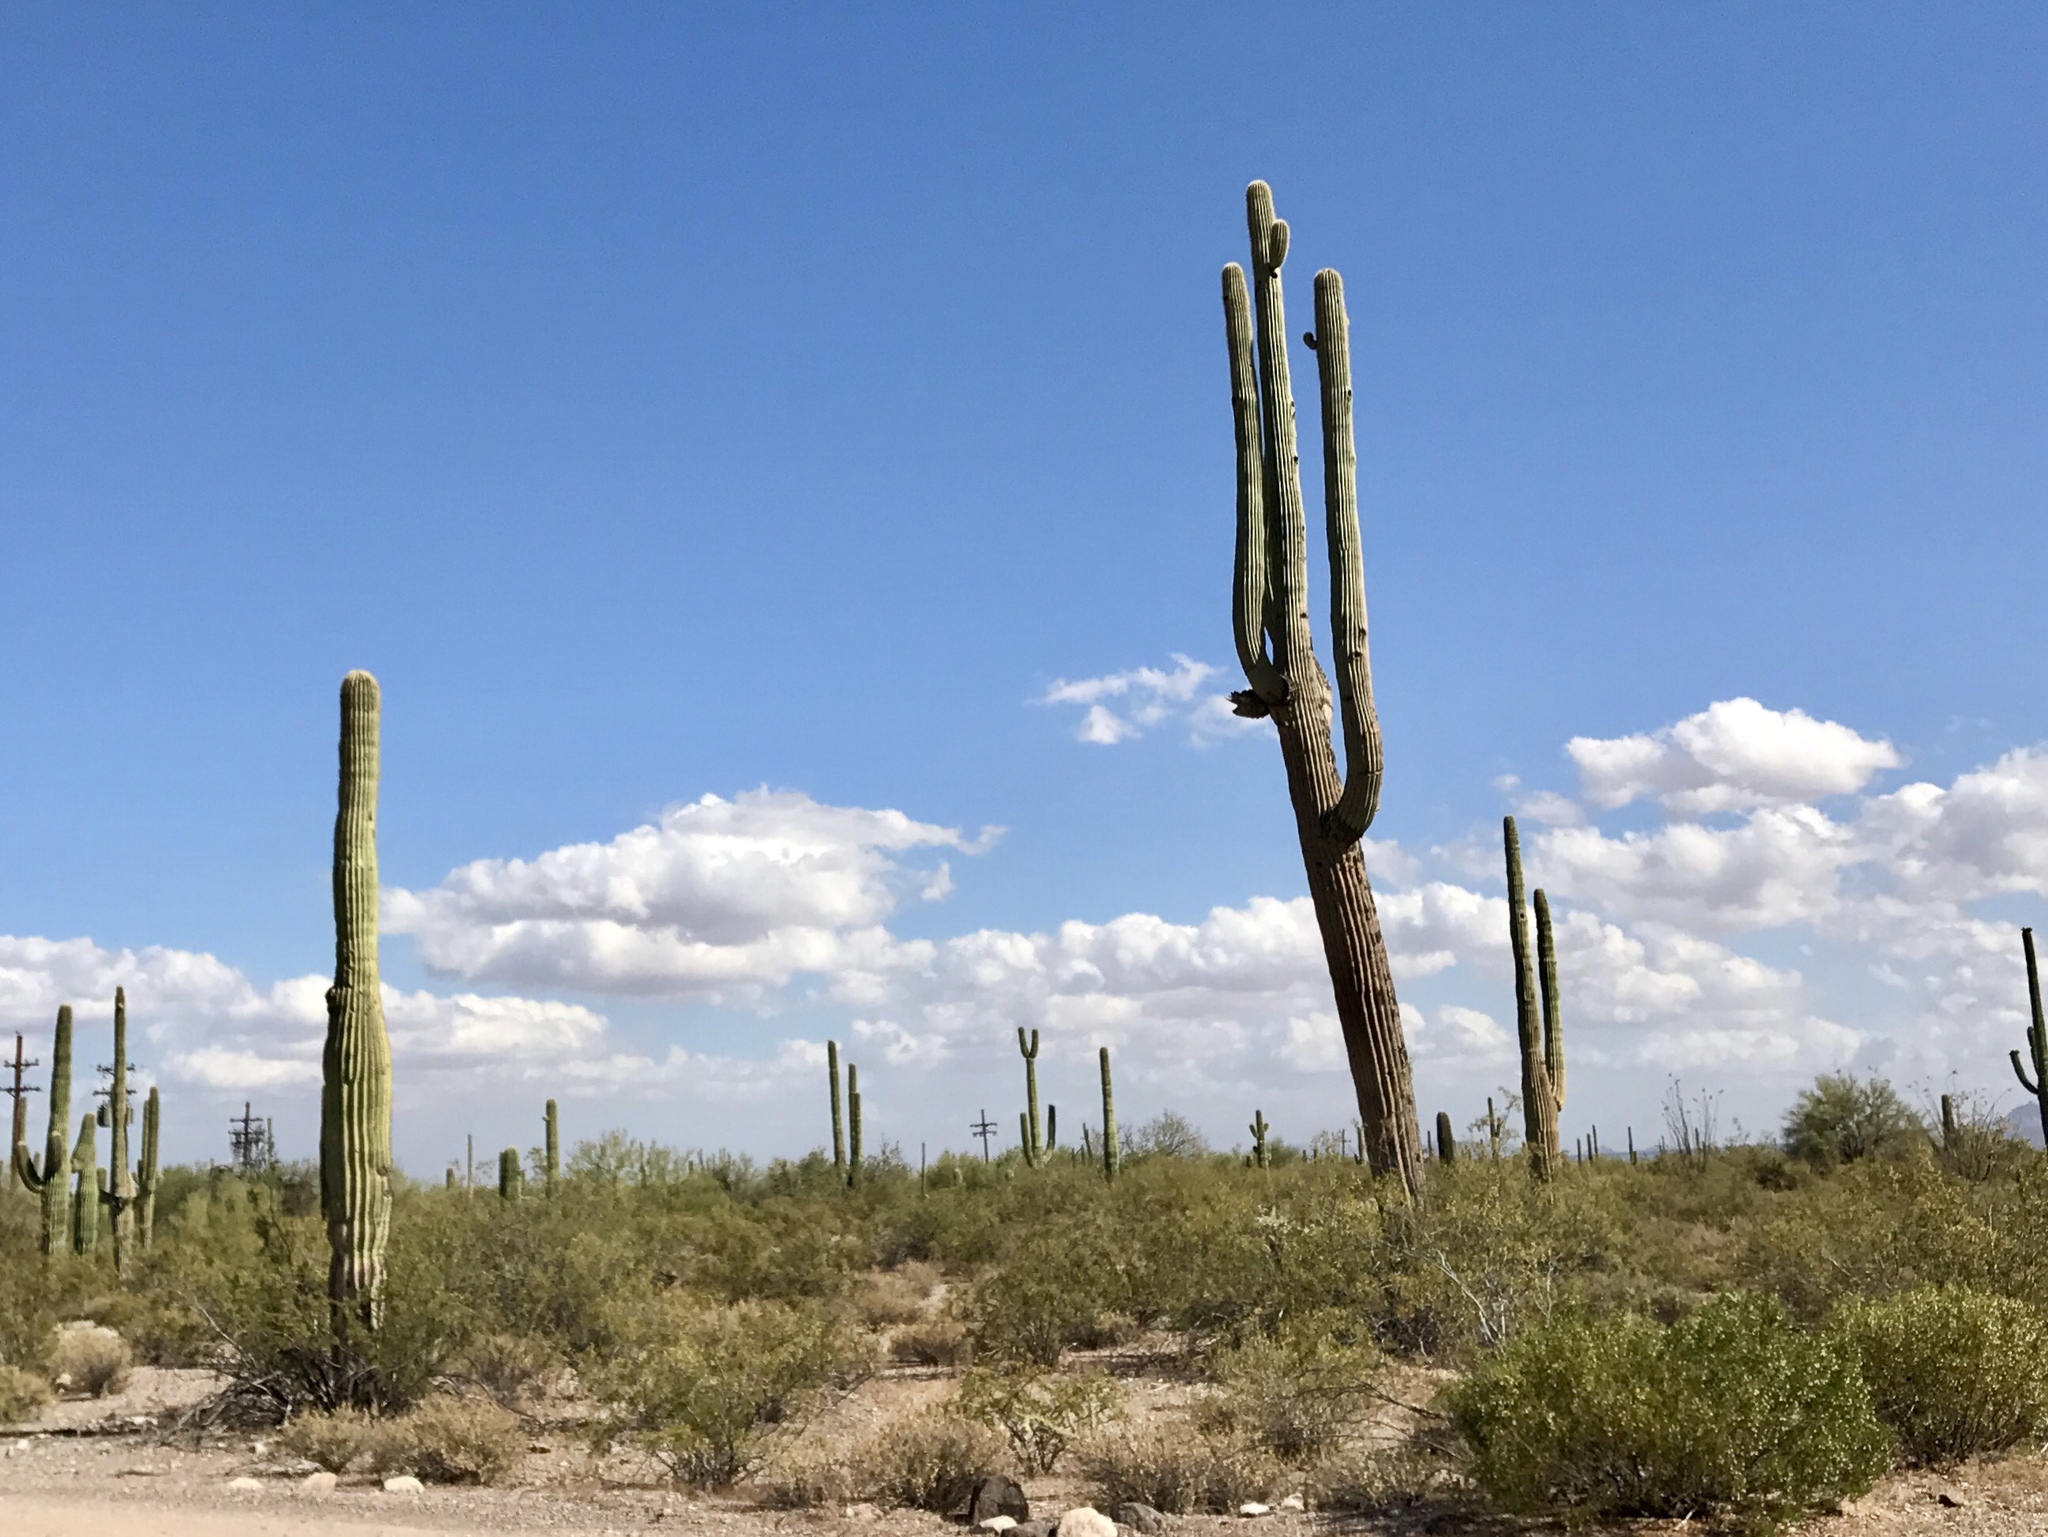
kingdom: Plantae
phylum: Tracheophyta
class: Magnoliopsida
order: Caryophyllales
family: Cactaceae
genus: Carnegiea
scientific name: Carnegiea gigantea
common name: Saguaro
